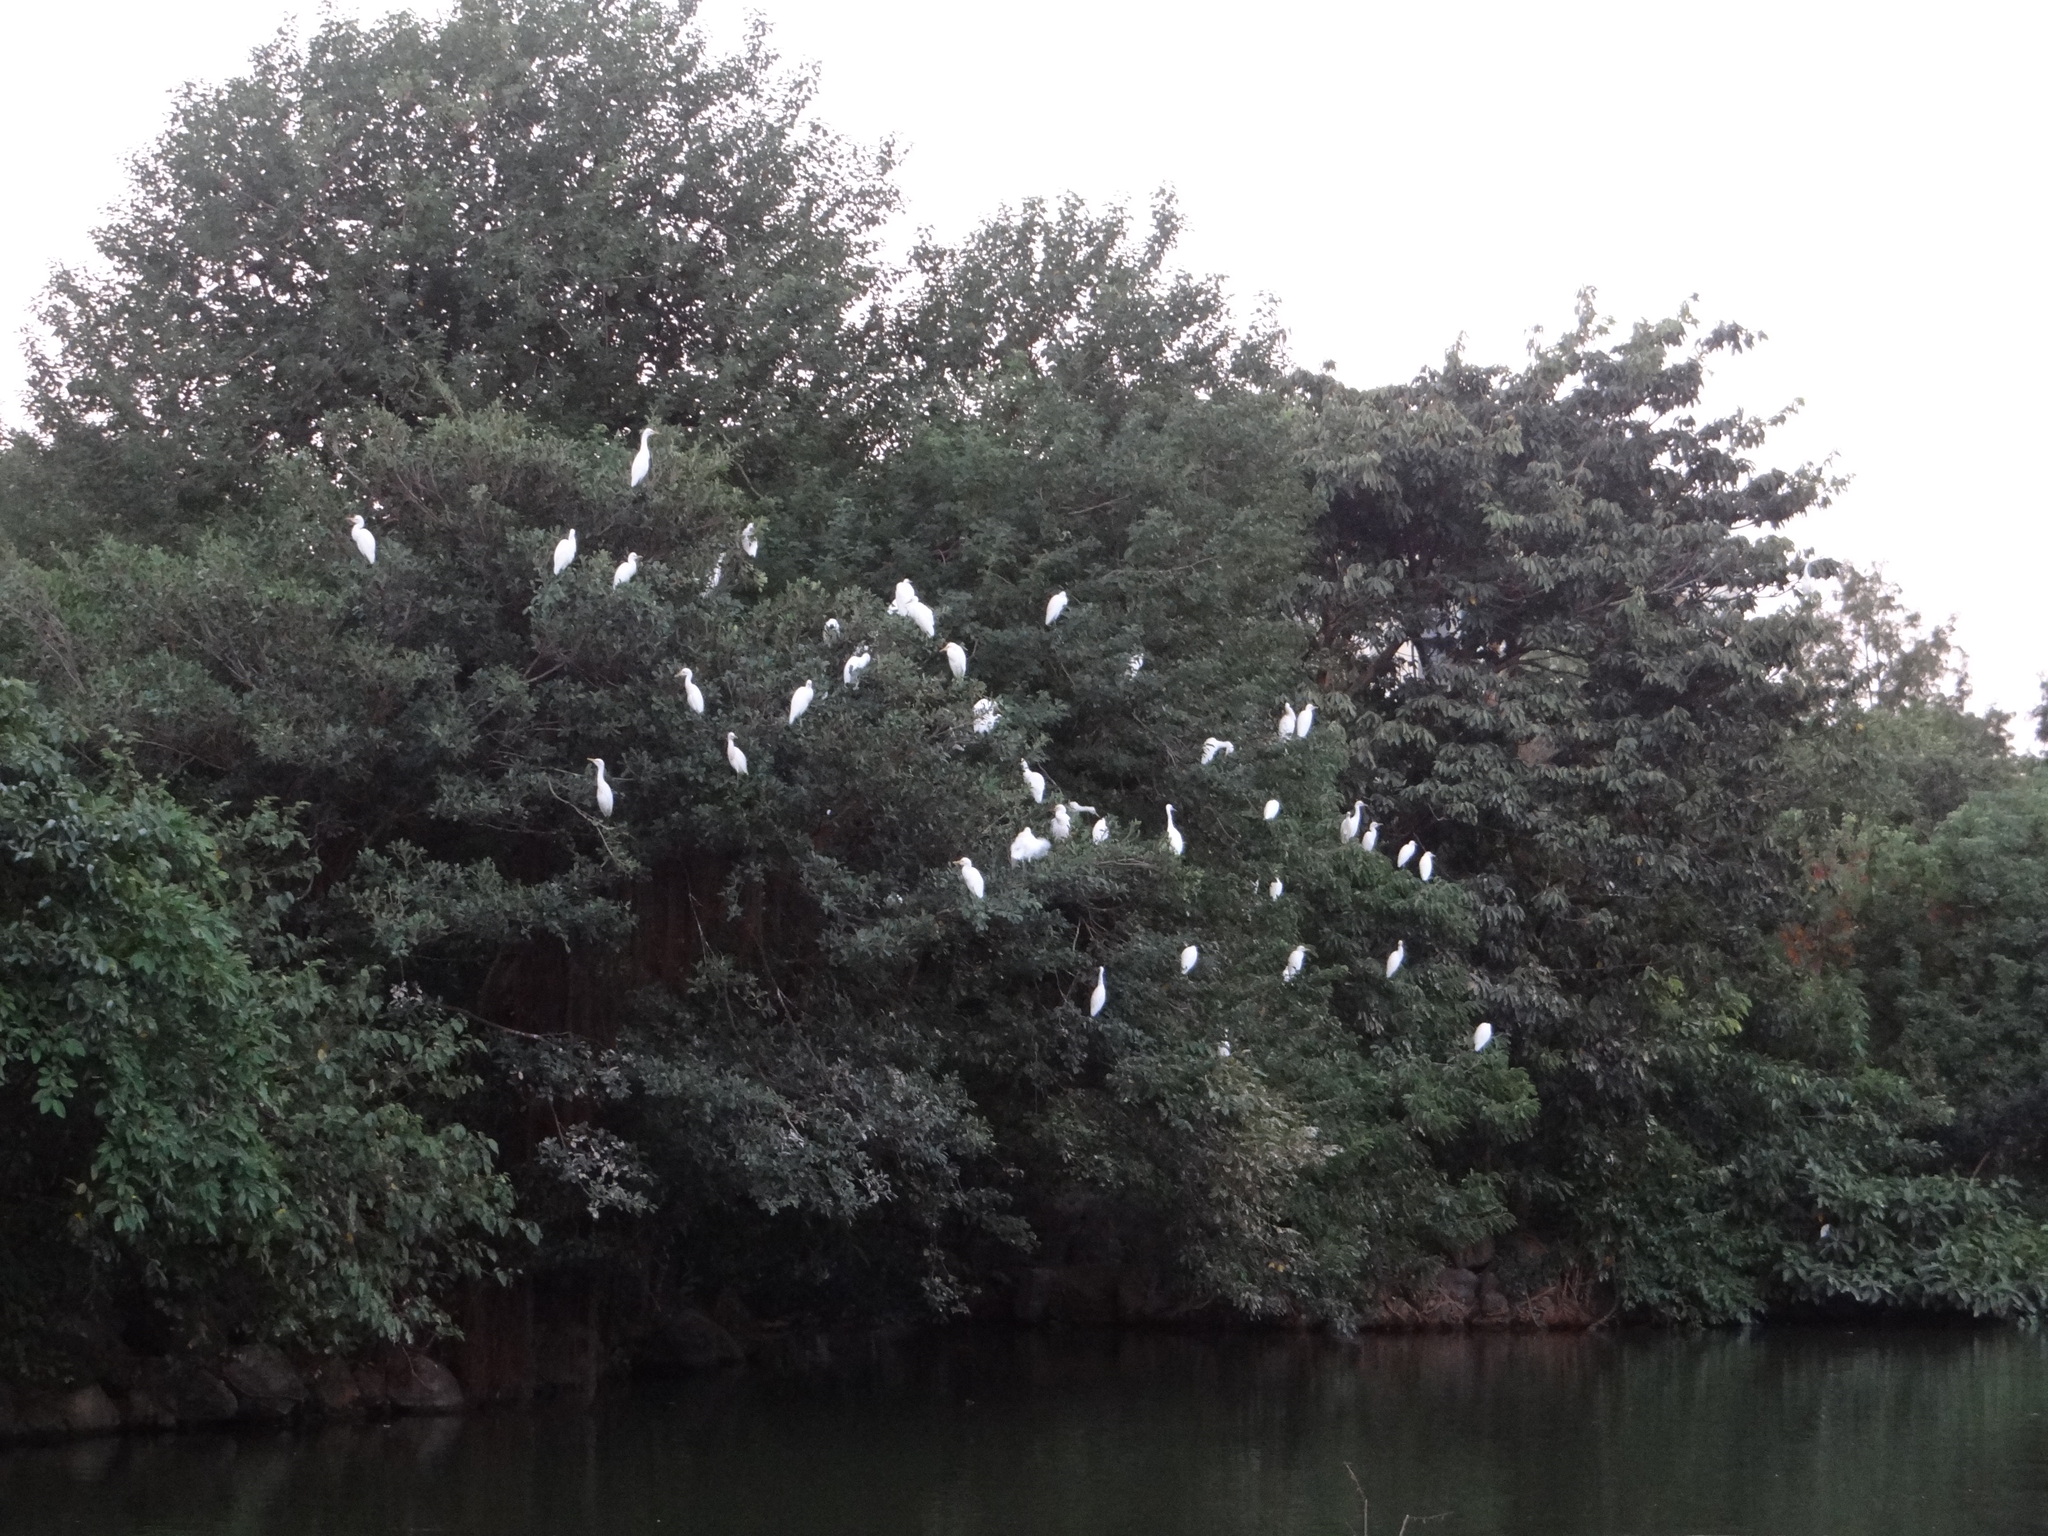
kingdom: Animalia
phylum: Chordata
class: Aves
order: Pelecaniformes
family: Ardeidae
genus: Bubulcus
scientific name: Bubulcus coromandus
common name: Eastern cattle egret
